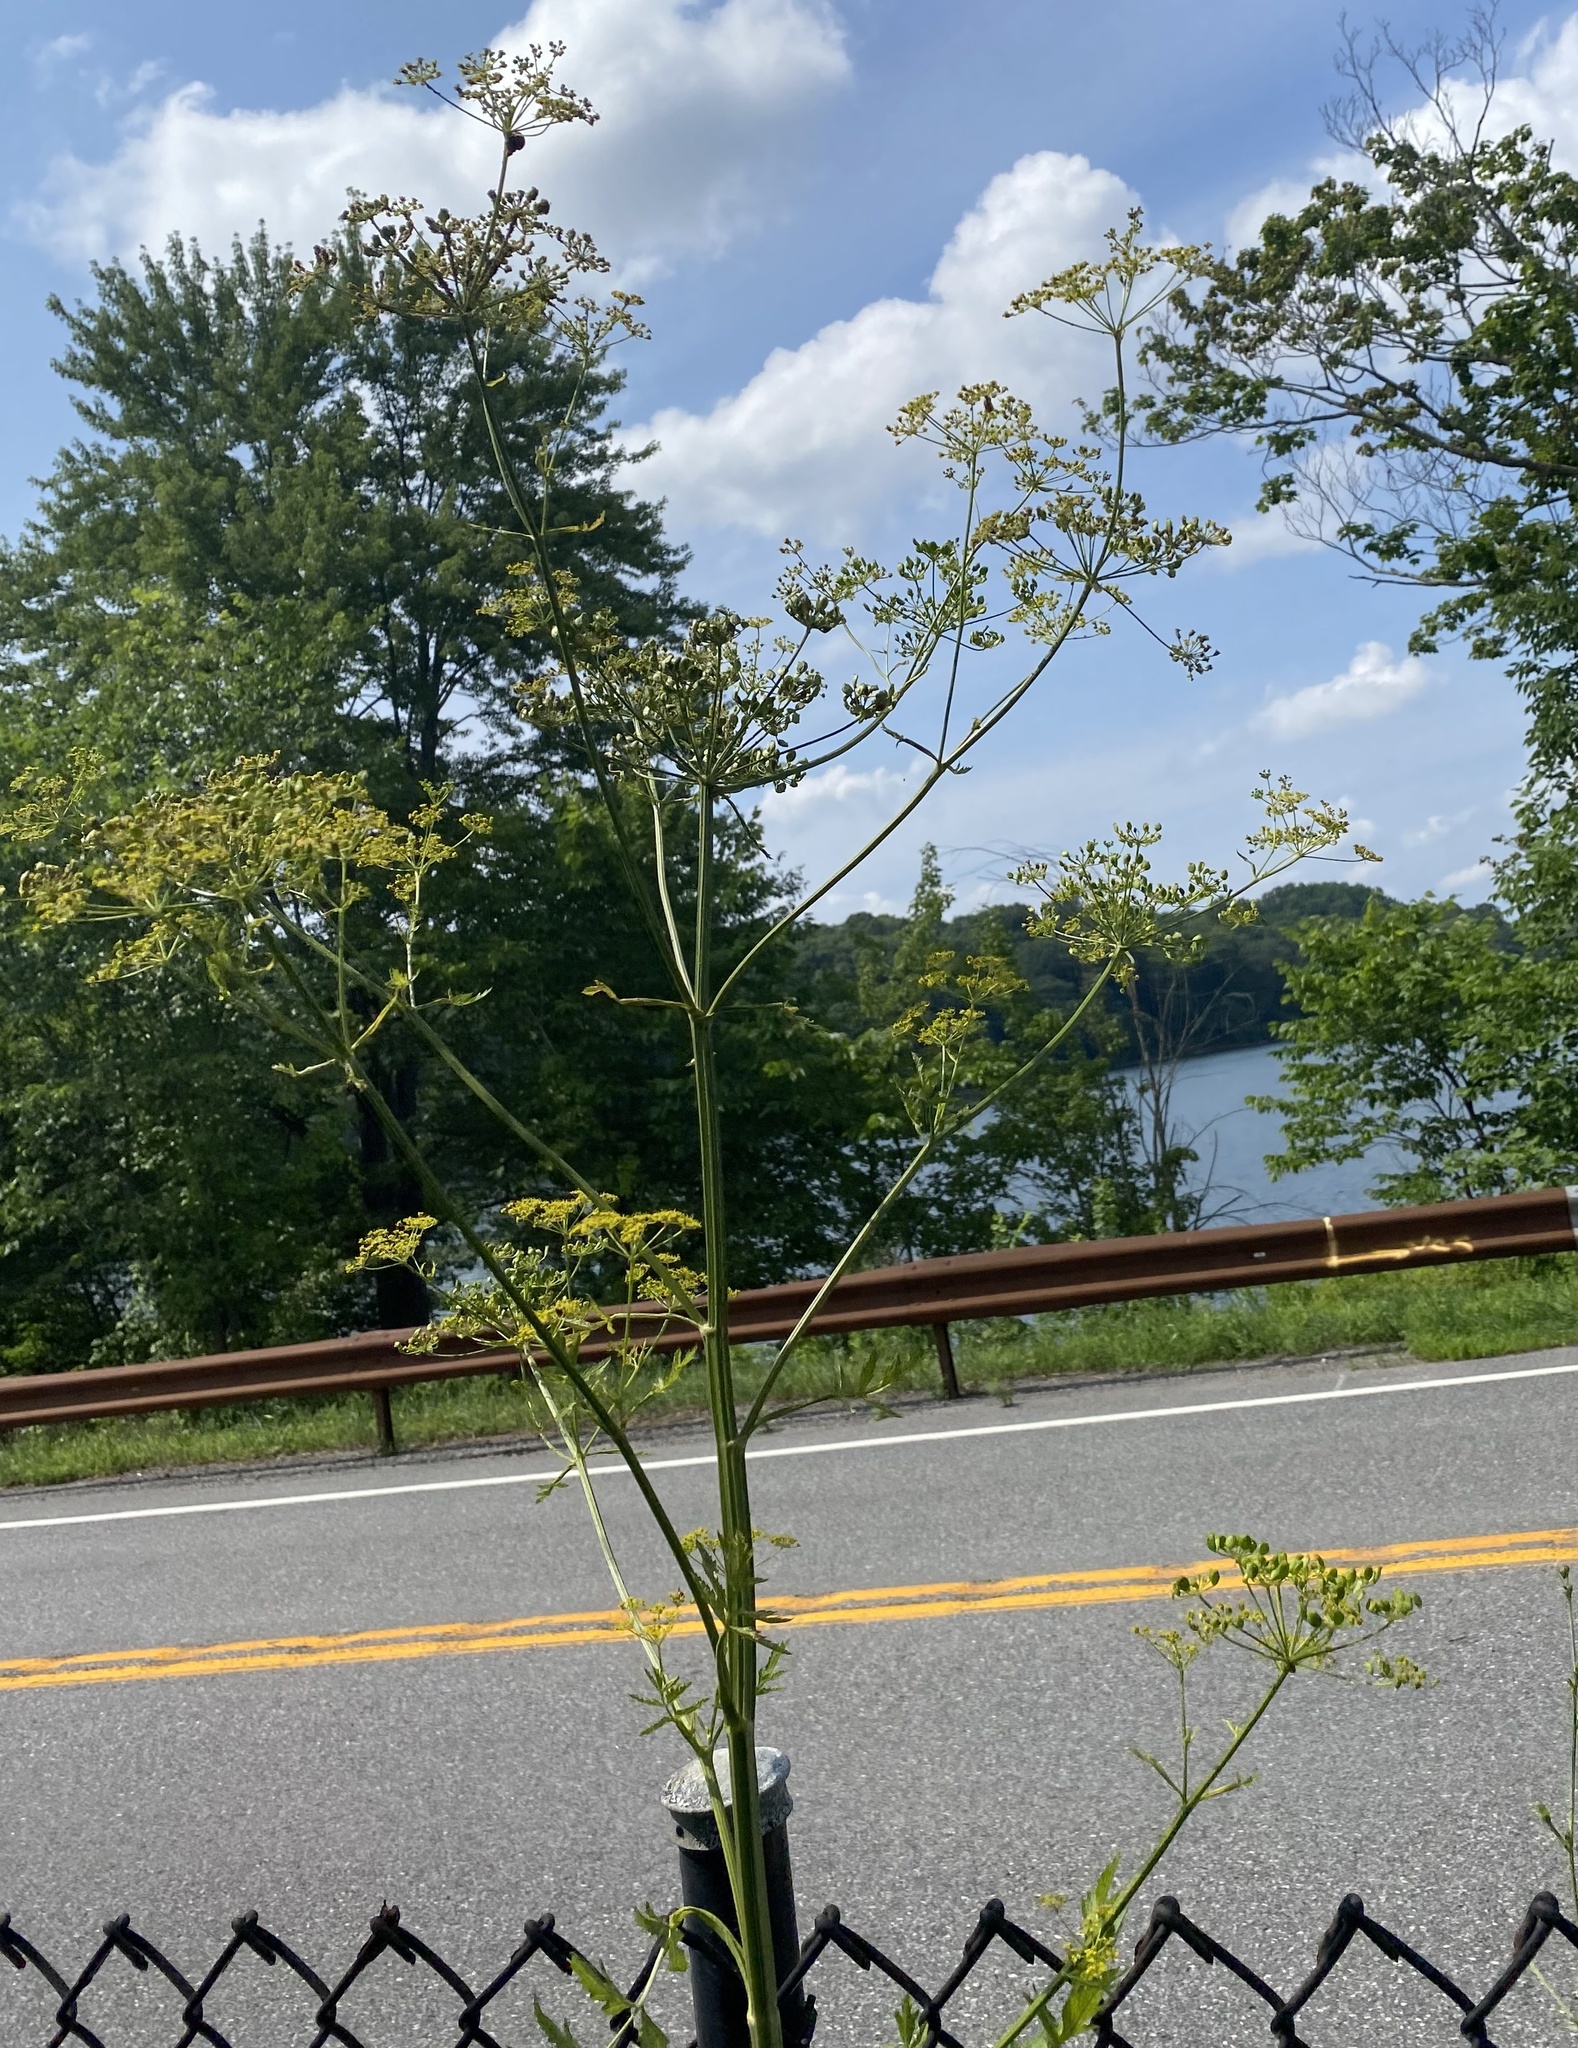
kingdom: Plantae
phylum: Tracheophyta
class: Magnoliopsida
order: Apiales
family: Apiaceae
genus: Pastinaca
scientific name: Pastinaca sativa
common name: Wild parsnip
